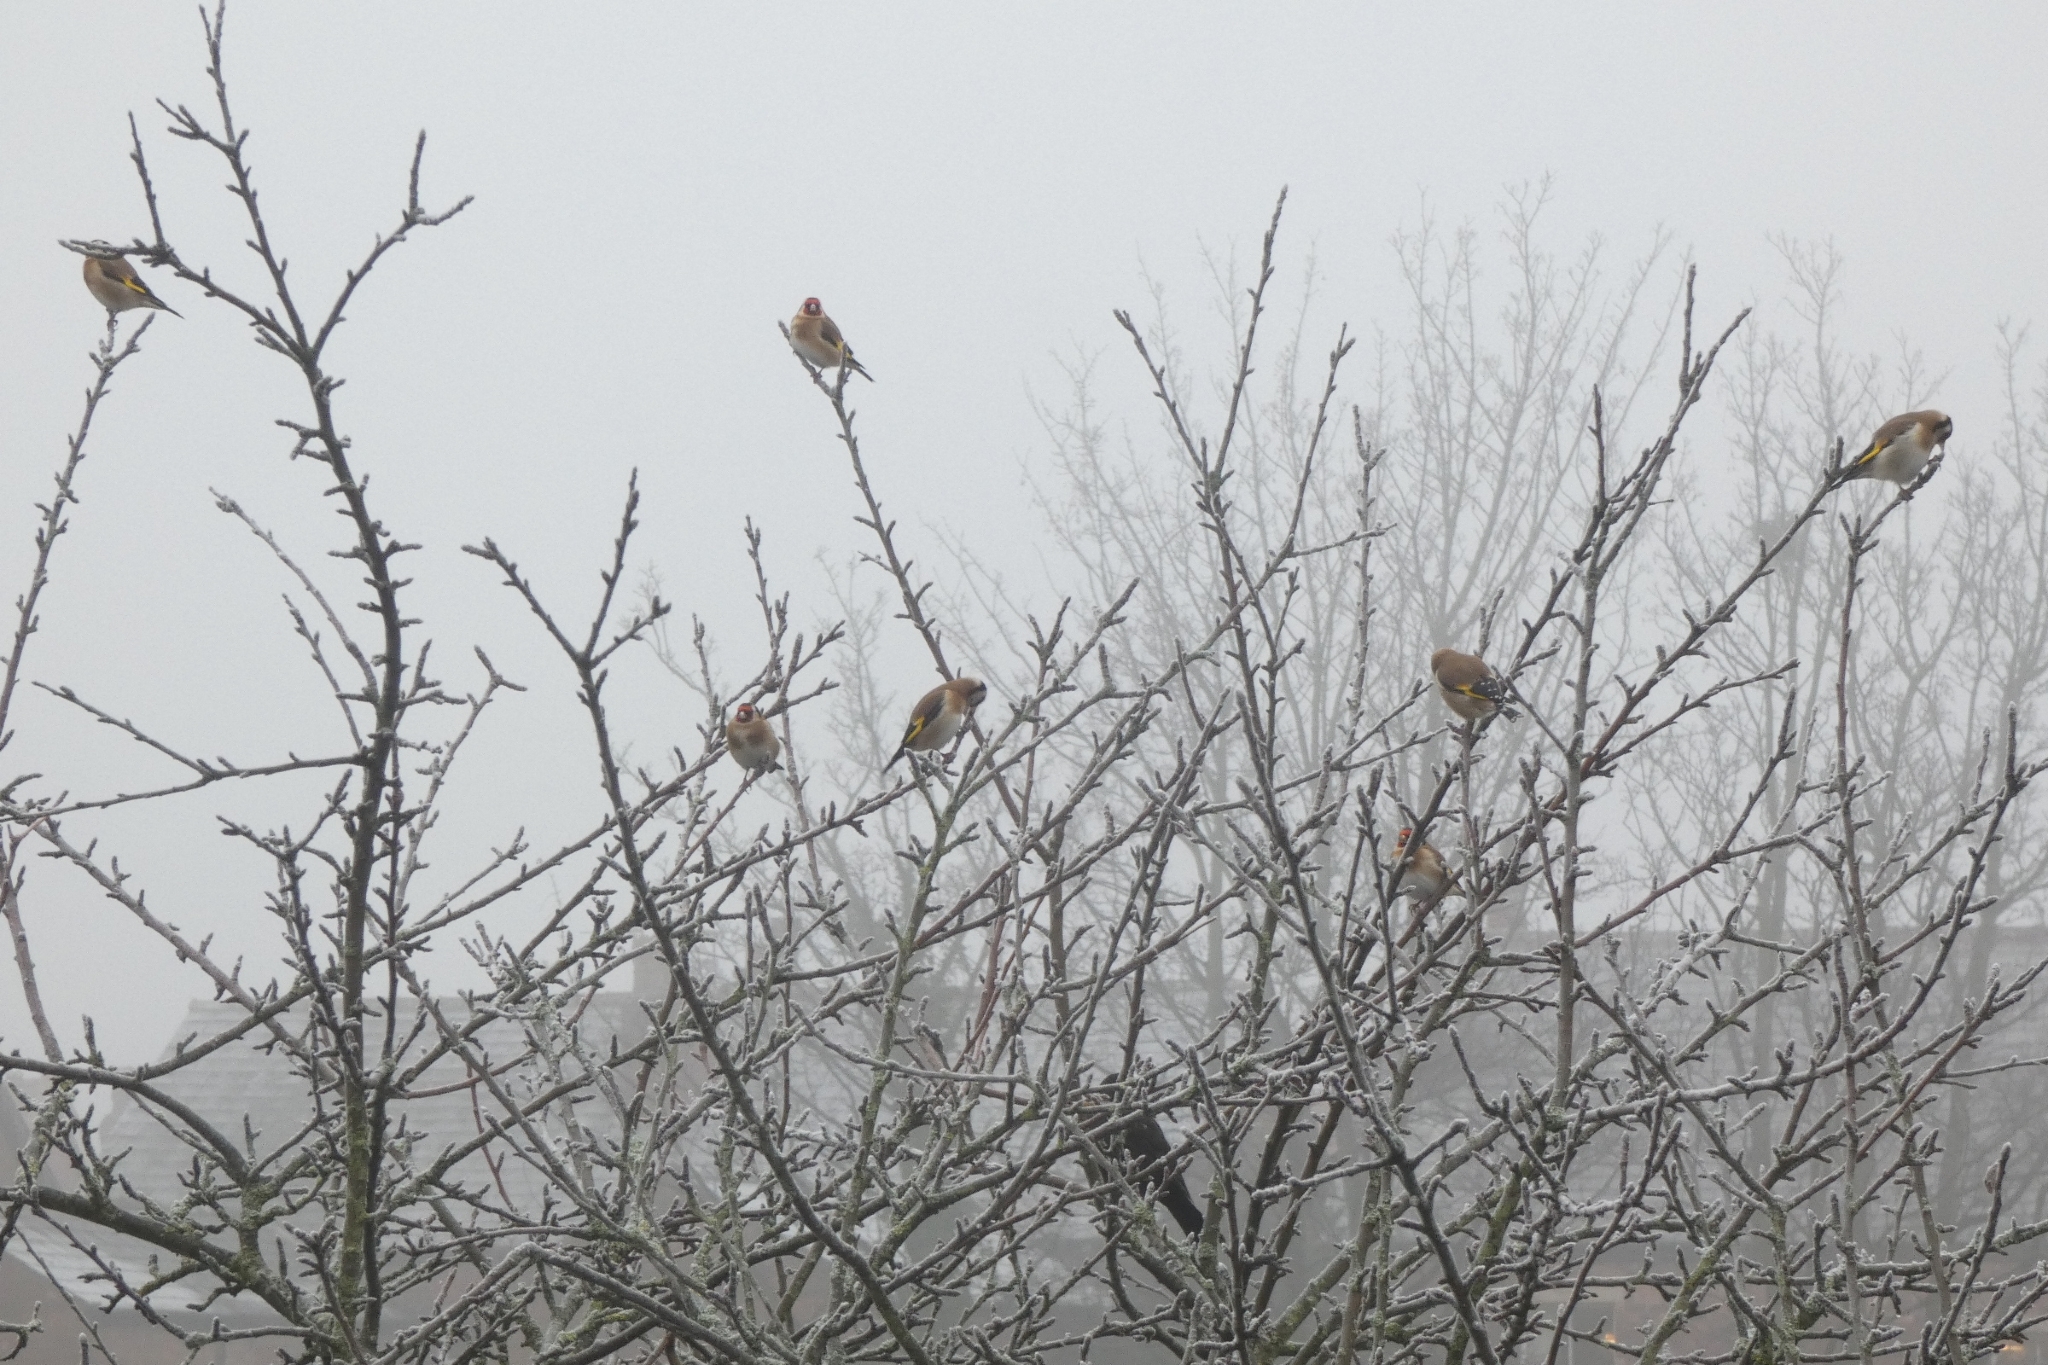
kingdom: Animalia
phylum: Chordata
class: Aves
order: Passeriformes
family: Fringillidae
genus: Carduelis
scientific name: Carduelis carduelis
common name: European goldfinch
